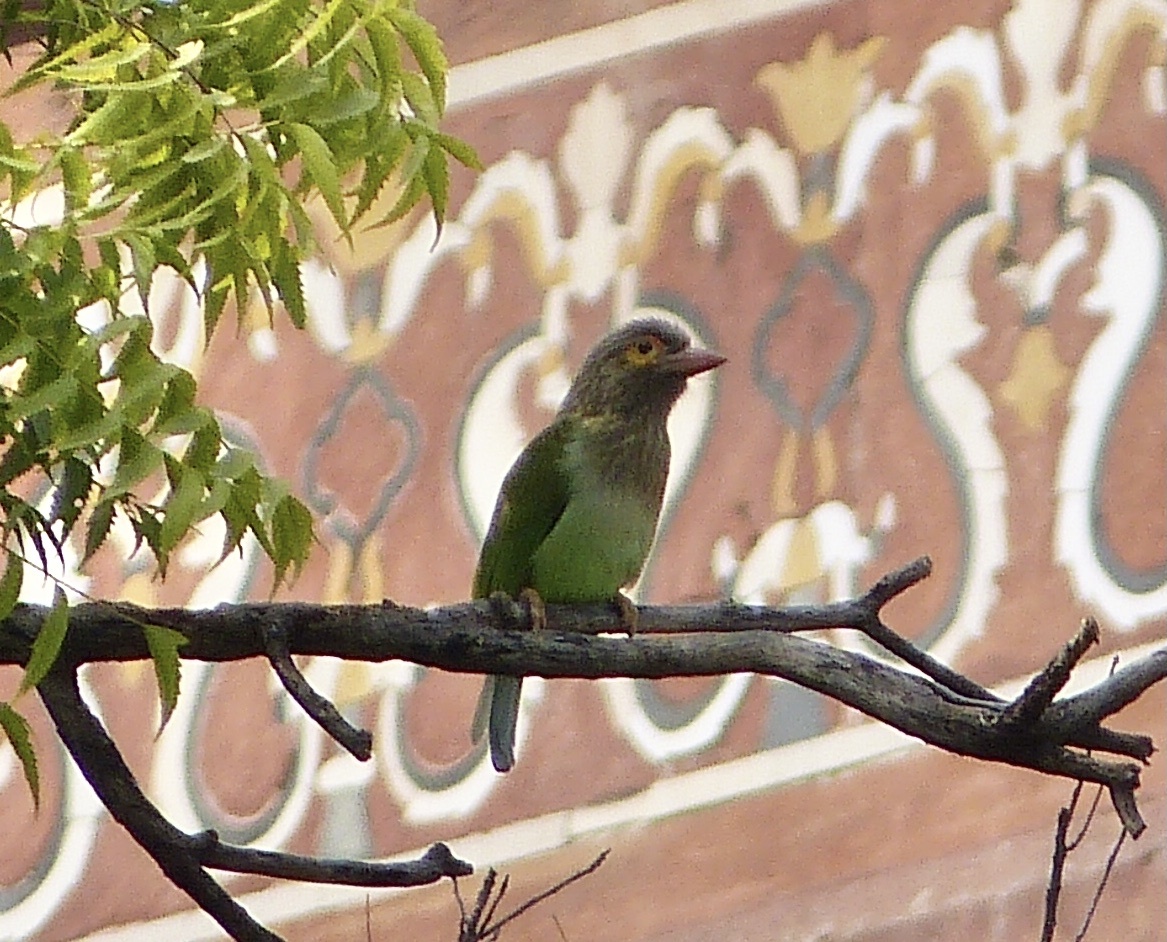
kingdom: Animalia
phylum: Chordata
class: Aves
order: Piciformes
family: Megalaimidae
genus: Psilopogon
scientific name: Psilopogon zeylanicus
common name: Brown-headed barbet
